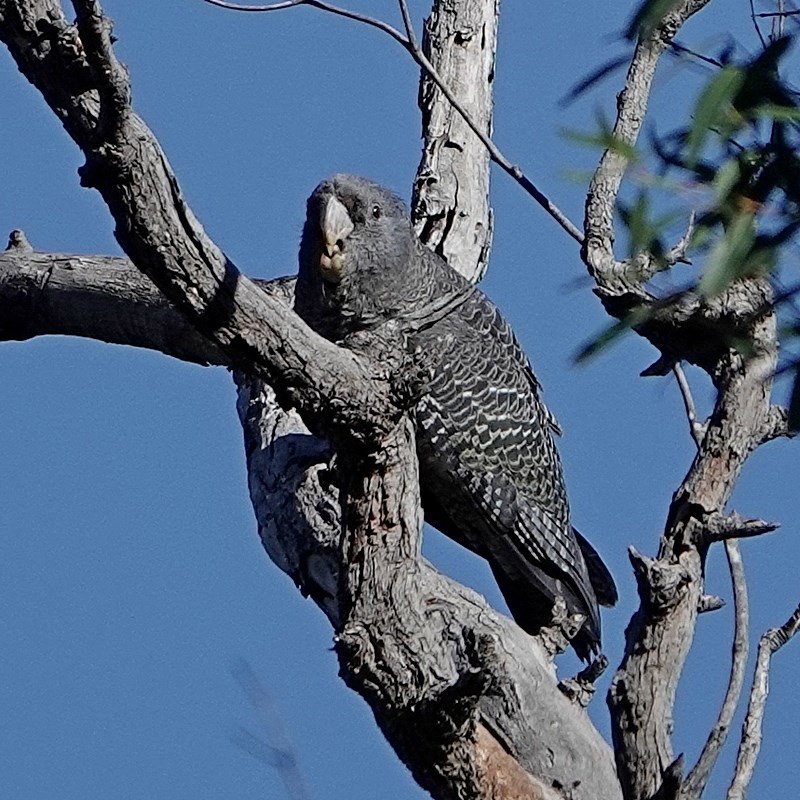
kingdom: Animalia
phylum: Chordata
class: Aves
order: Psittaciformes
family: Psittacidae
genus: Callocephalon
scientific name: Callocephalon fimbriatum
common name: Gang-gang cockatoo
